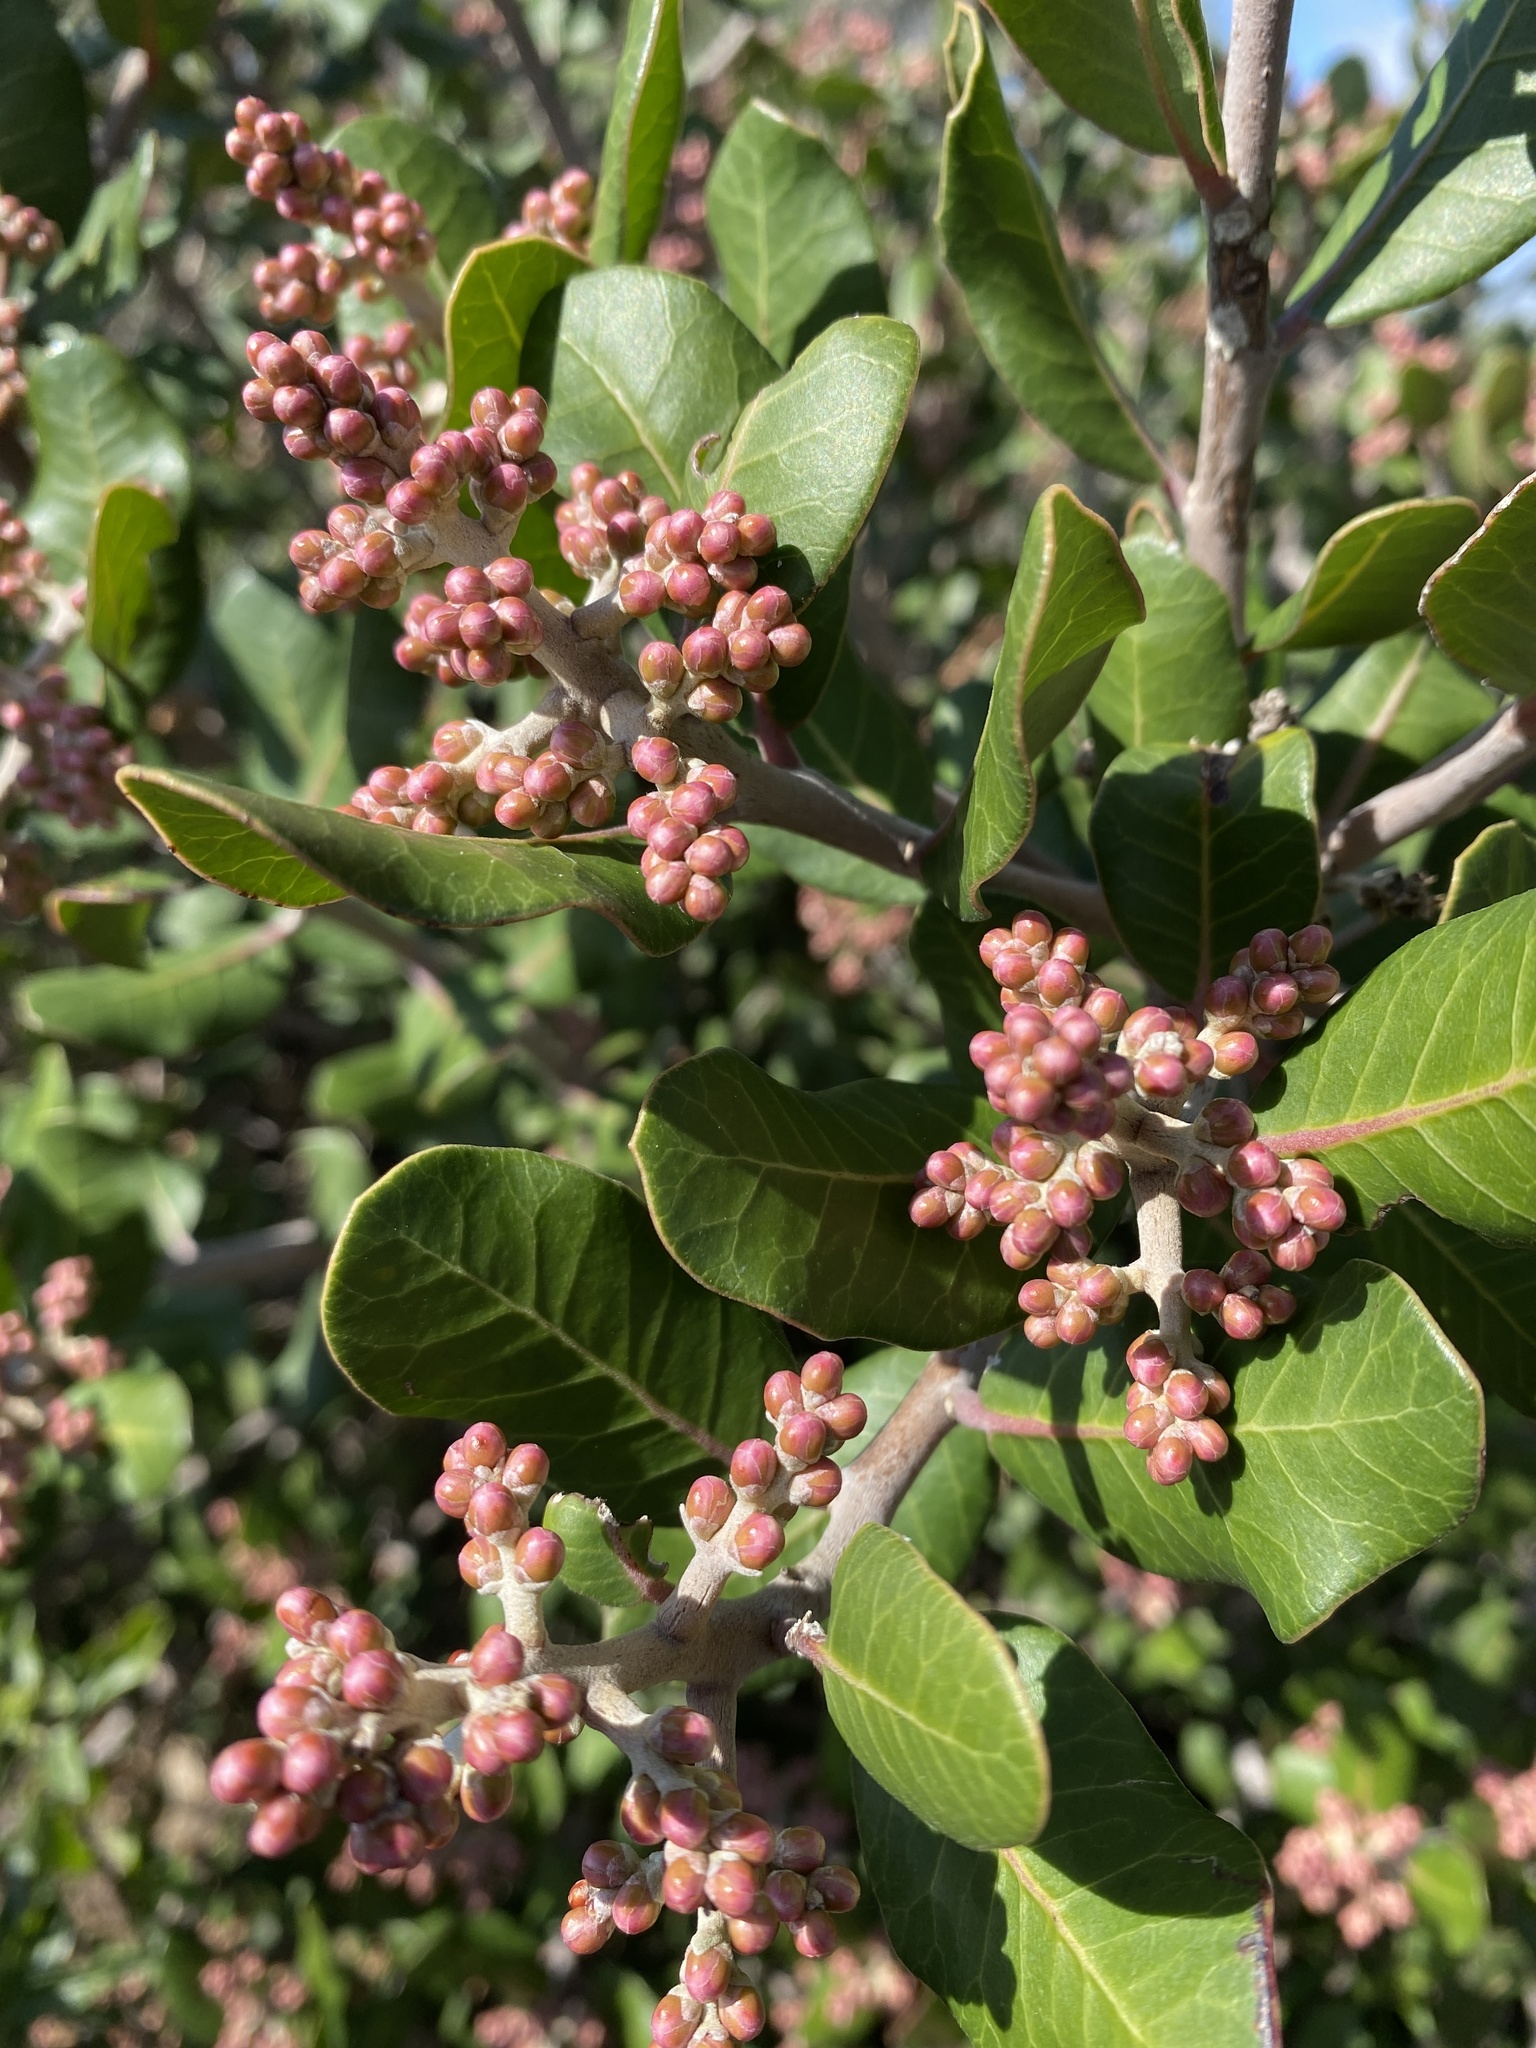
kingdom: Plantae
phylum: Tracheophyta
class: Magnoliopsida
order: Sapindales
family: Anacardiaceae
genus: Rhus
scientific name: Rhus integrifolia
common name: Lemonade sumac
